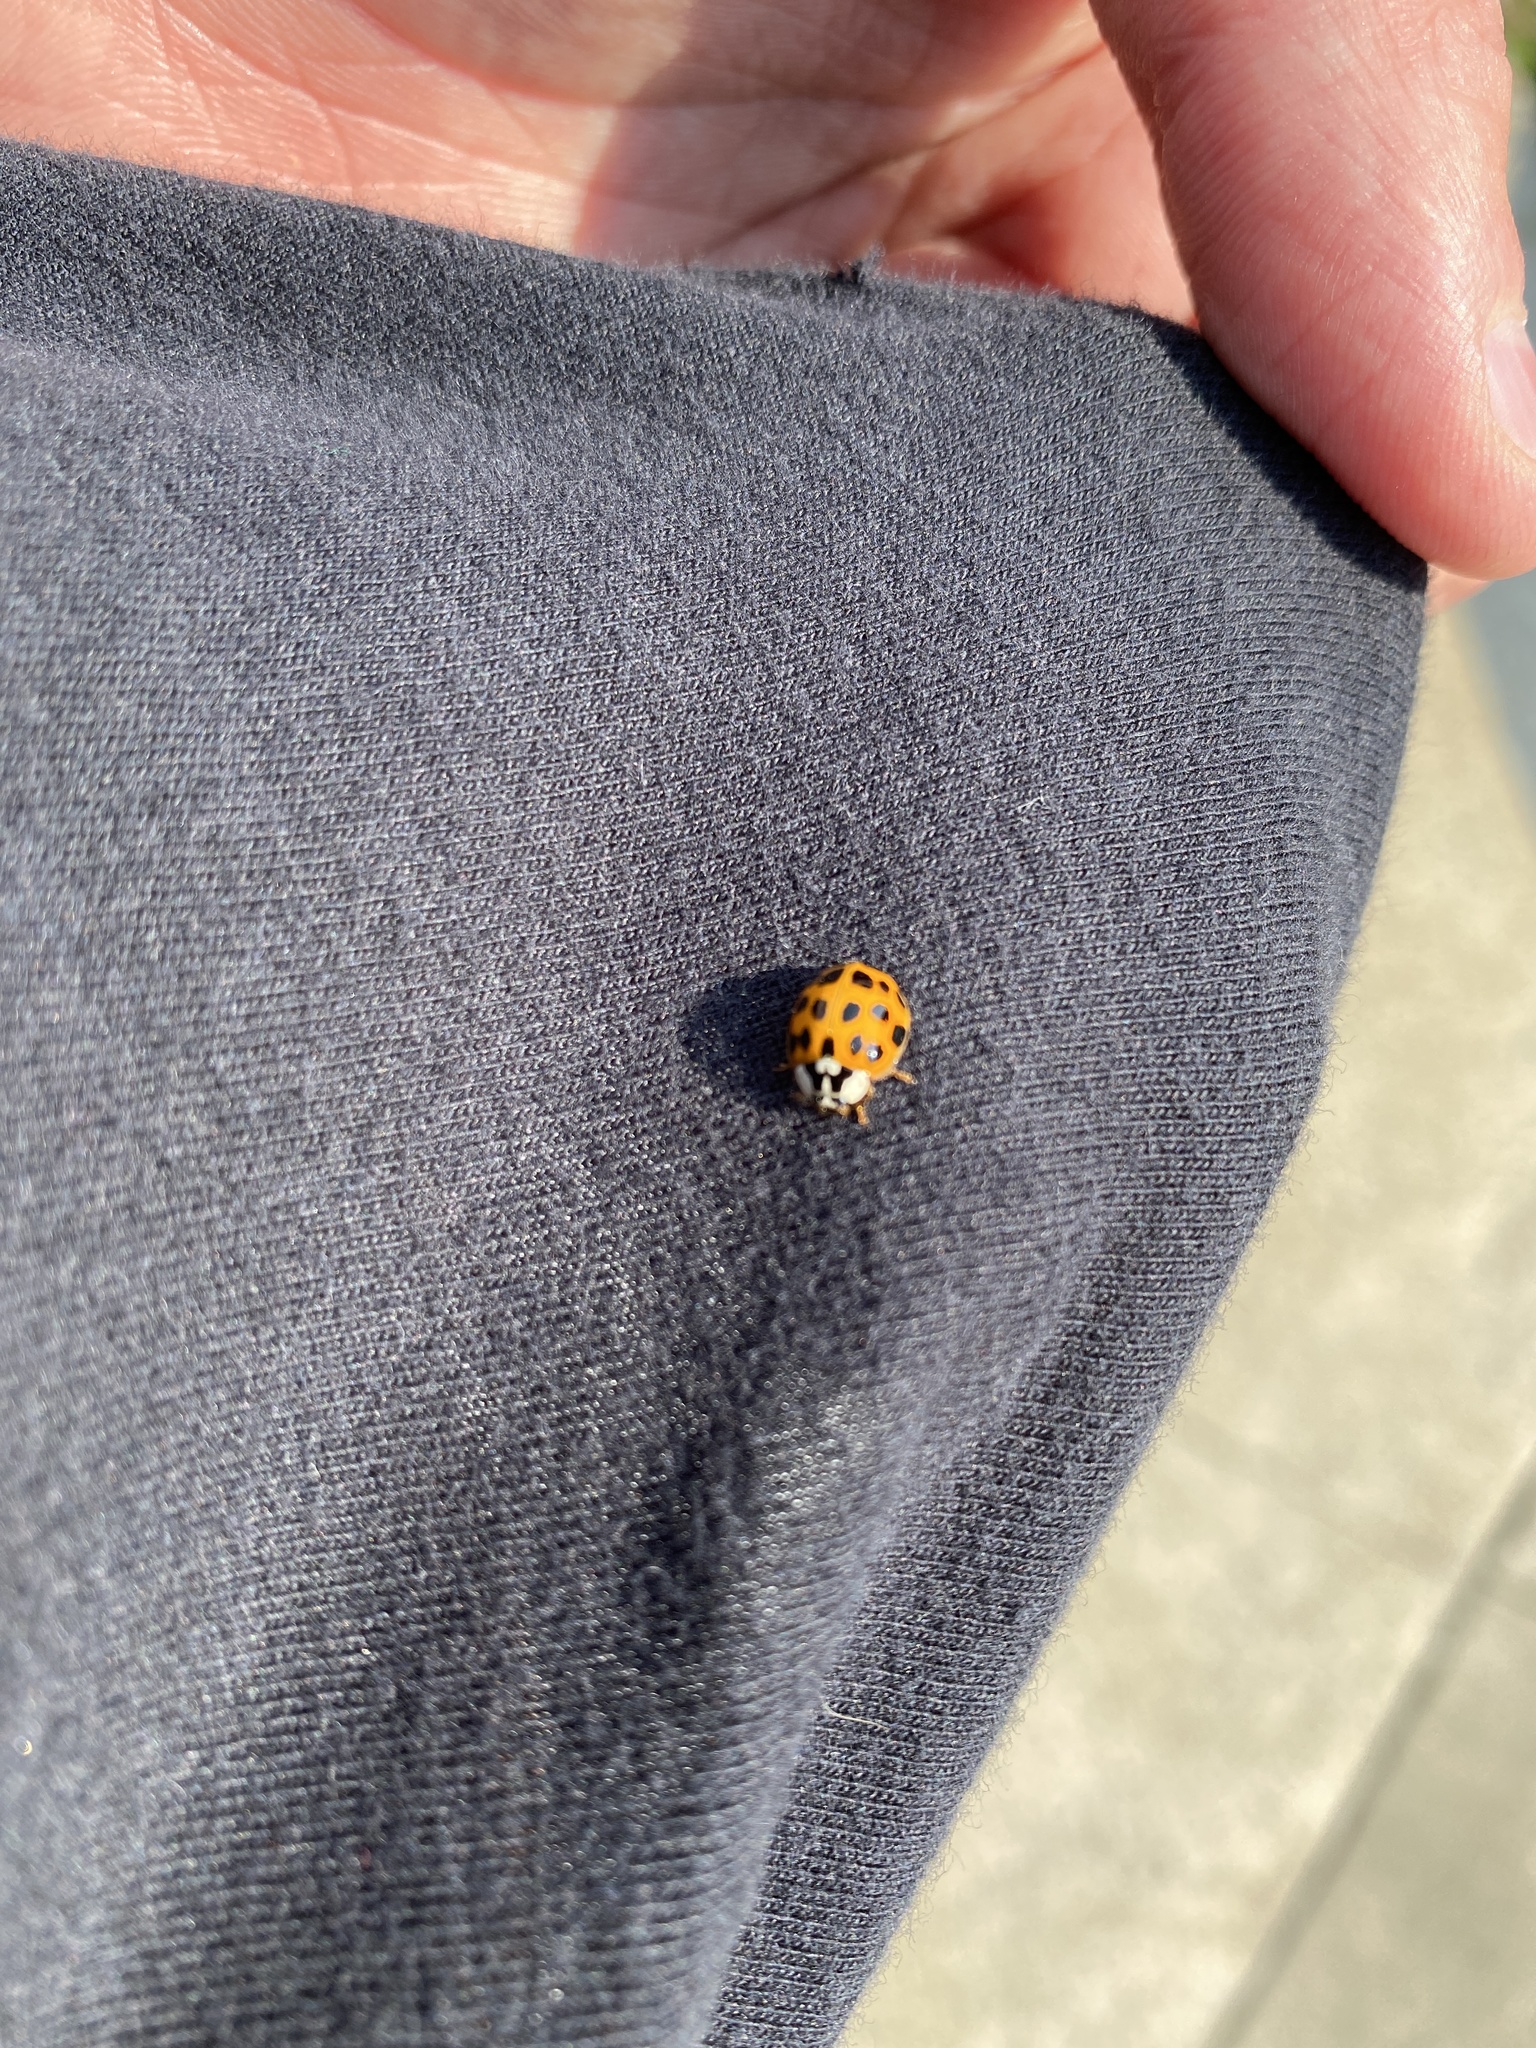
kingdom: Animalia
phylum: Arthropoda
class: Insecta
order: Coleoptera
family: Coccinellidae
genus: Harmonia
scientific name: Harmonia axyridis
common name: Harlequin ladybird
